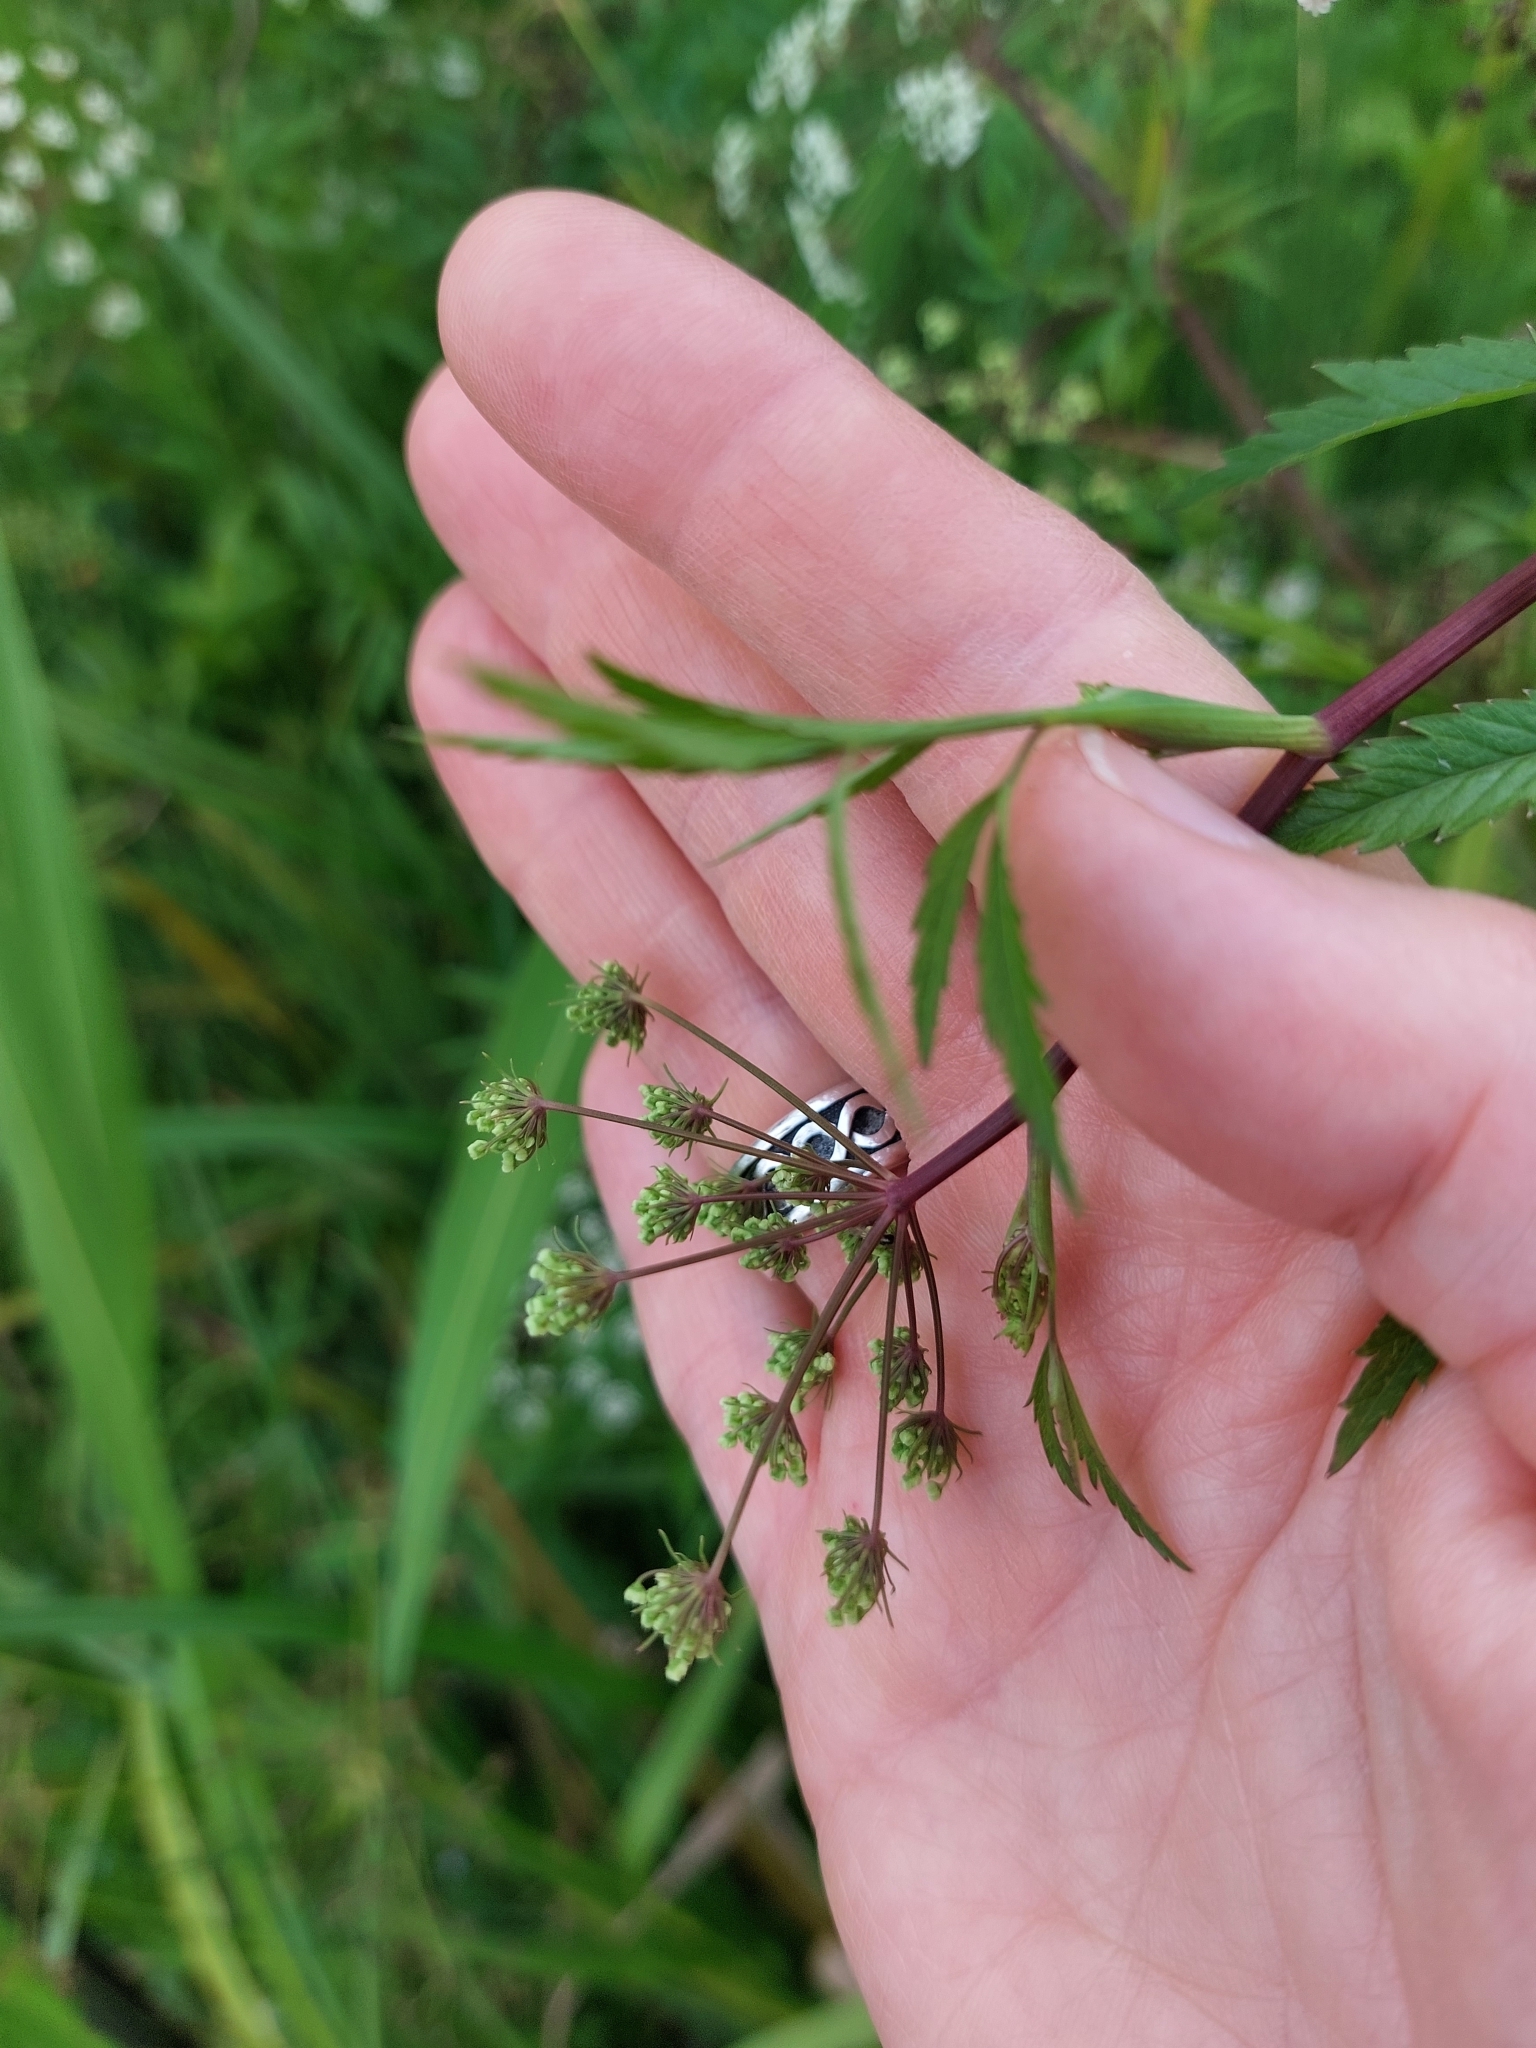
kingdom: Plantae
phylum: Tracheophyta
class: Magnoliopsida
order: Apiales
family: Apiaceae
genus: Cicuta
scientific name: Cicuta virosa
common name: Cowbane
